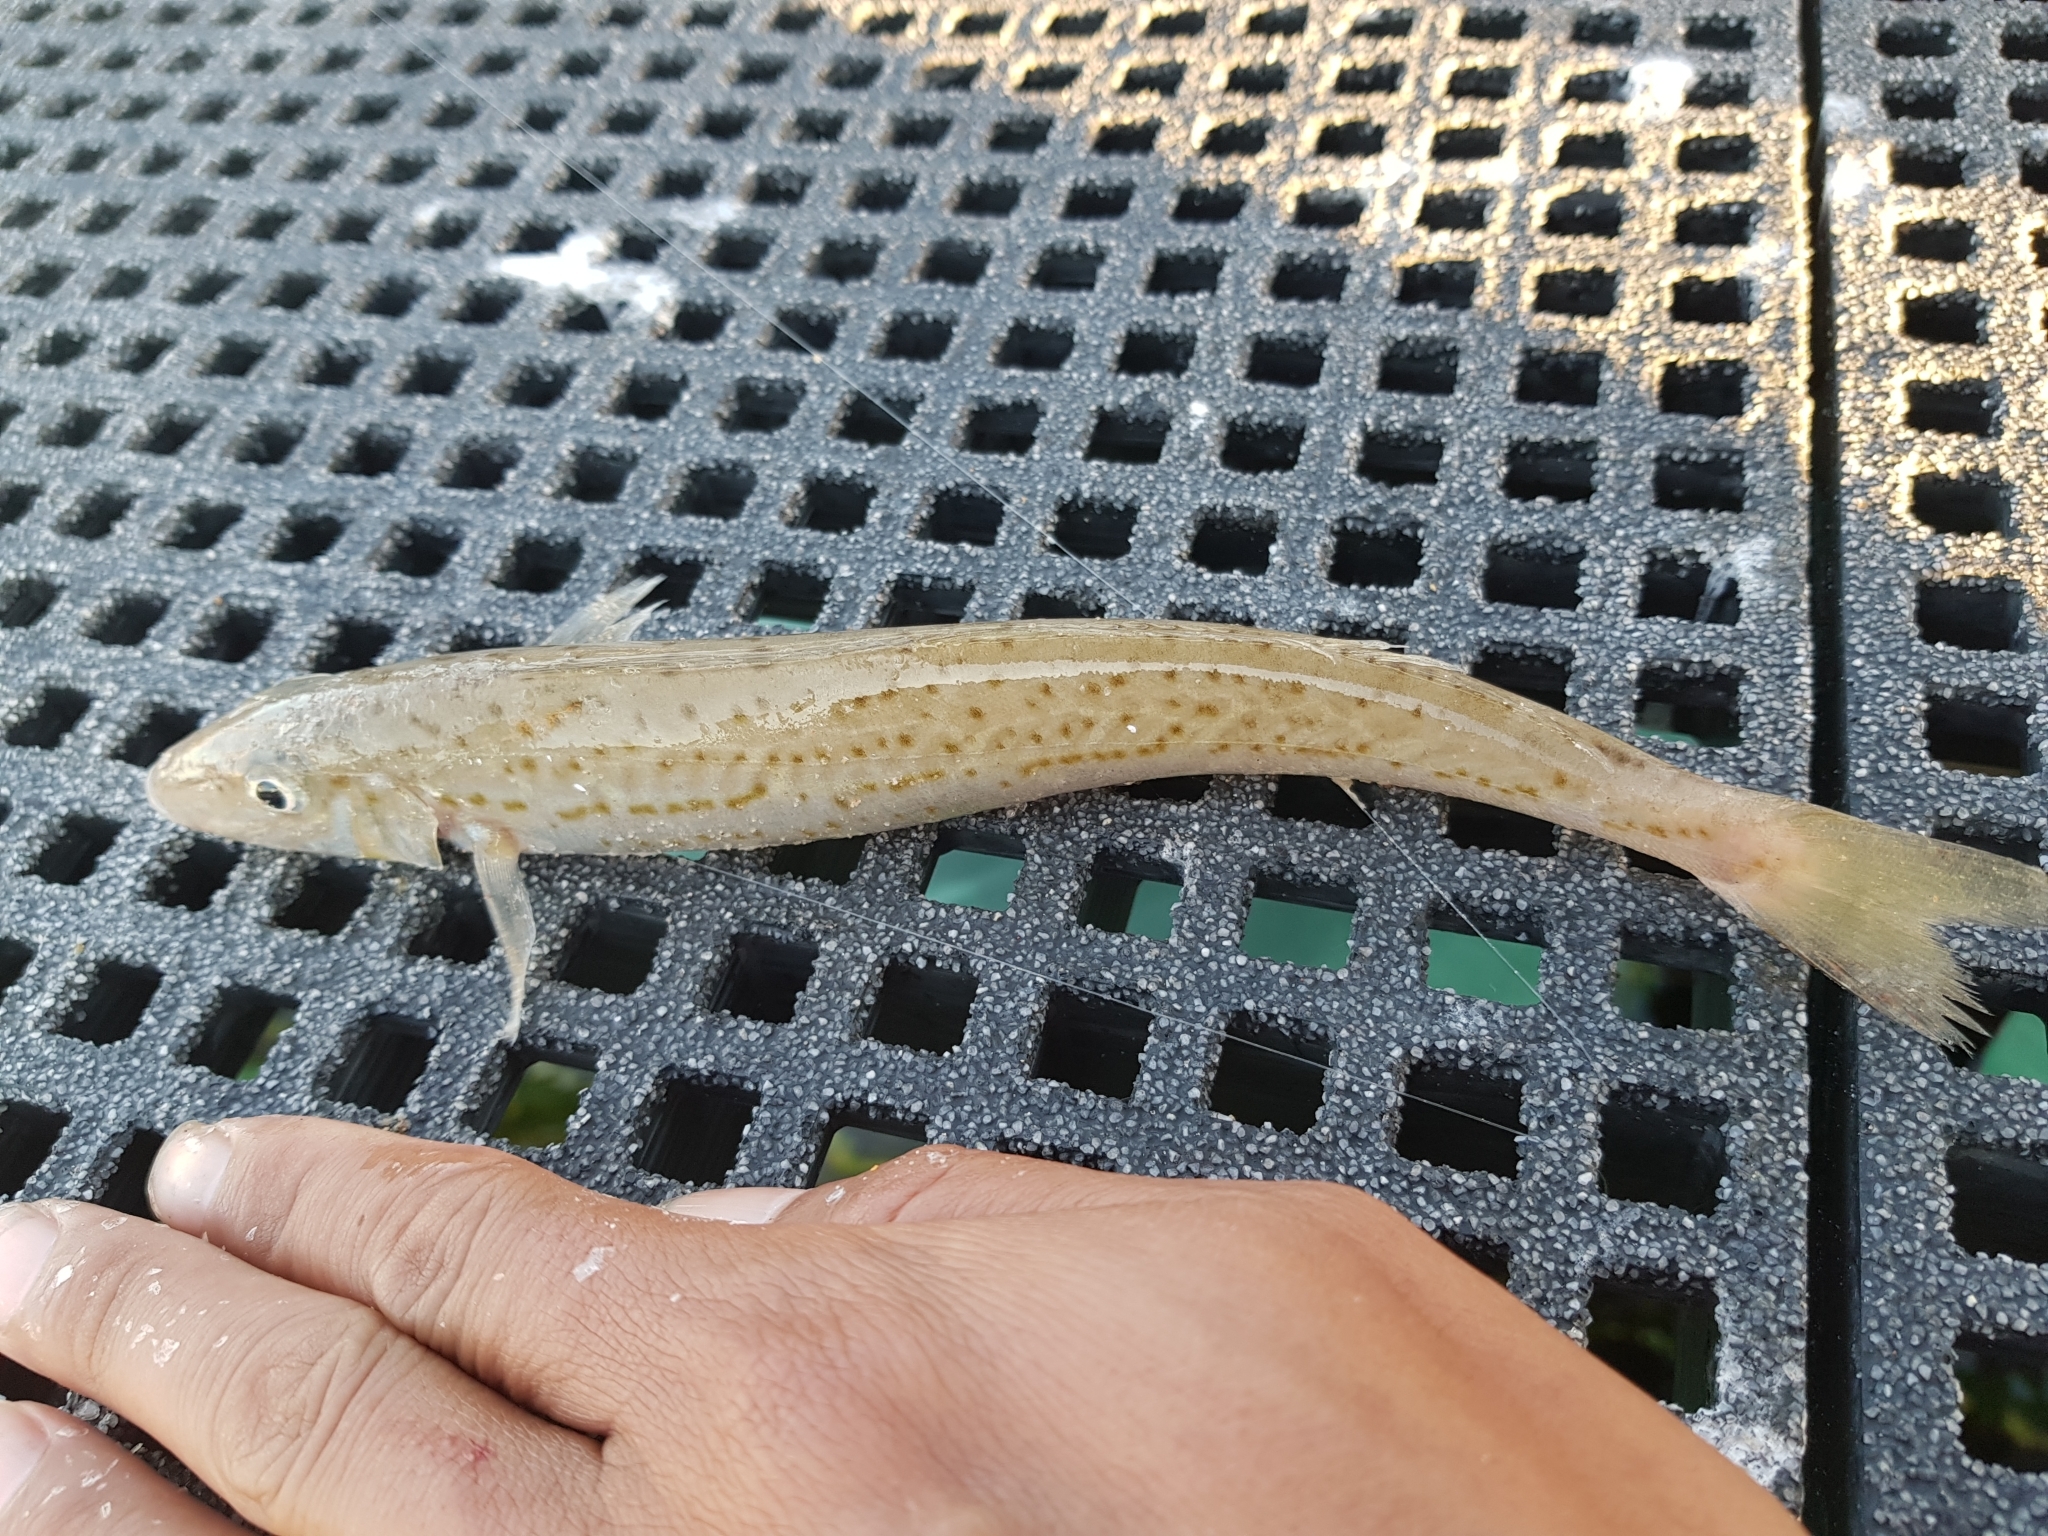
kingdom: Animalia
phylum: Chordata
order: Perciformes
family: Sillaginidae
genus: Sillaginodes
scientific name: Sillaginodes punctatus
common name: King george whiting
